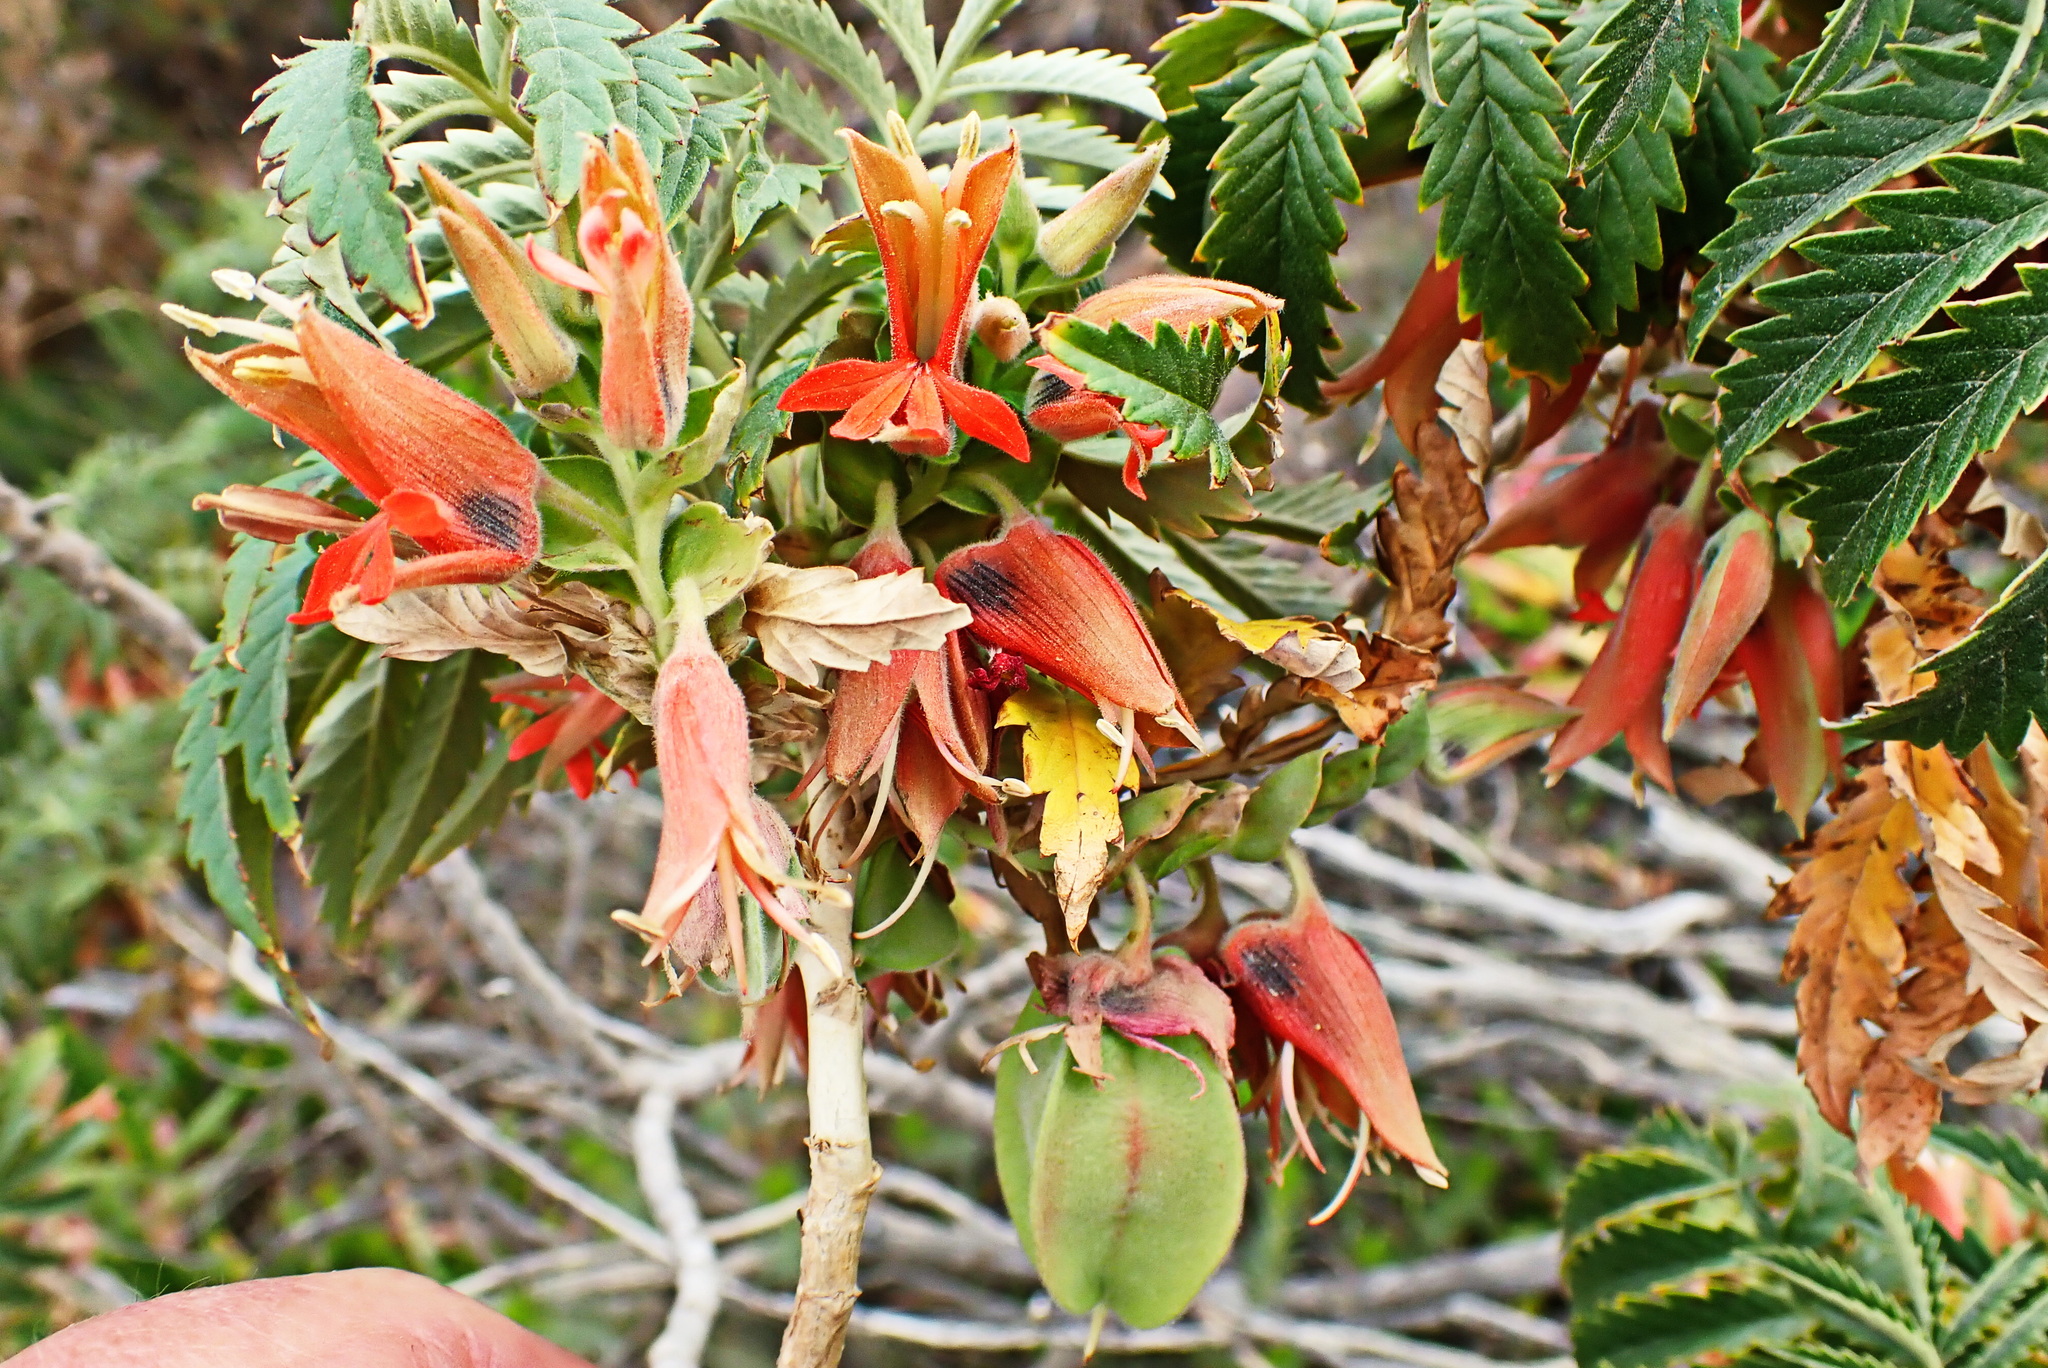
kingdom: Plantae
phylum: Tracheophyta
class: Magnoliopsida
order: Geraniales
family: Melianthaceae
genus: Melianthus
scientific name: Melianthus comosus
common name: Touch-me-not
